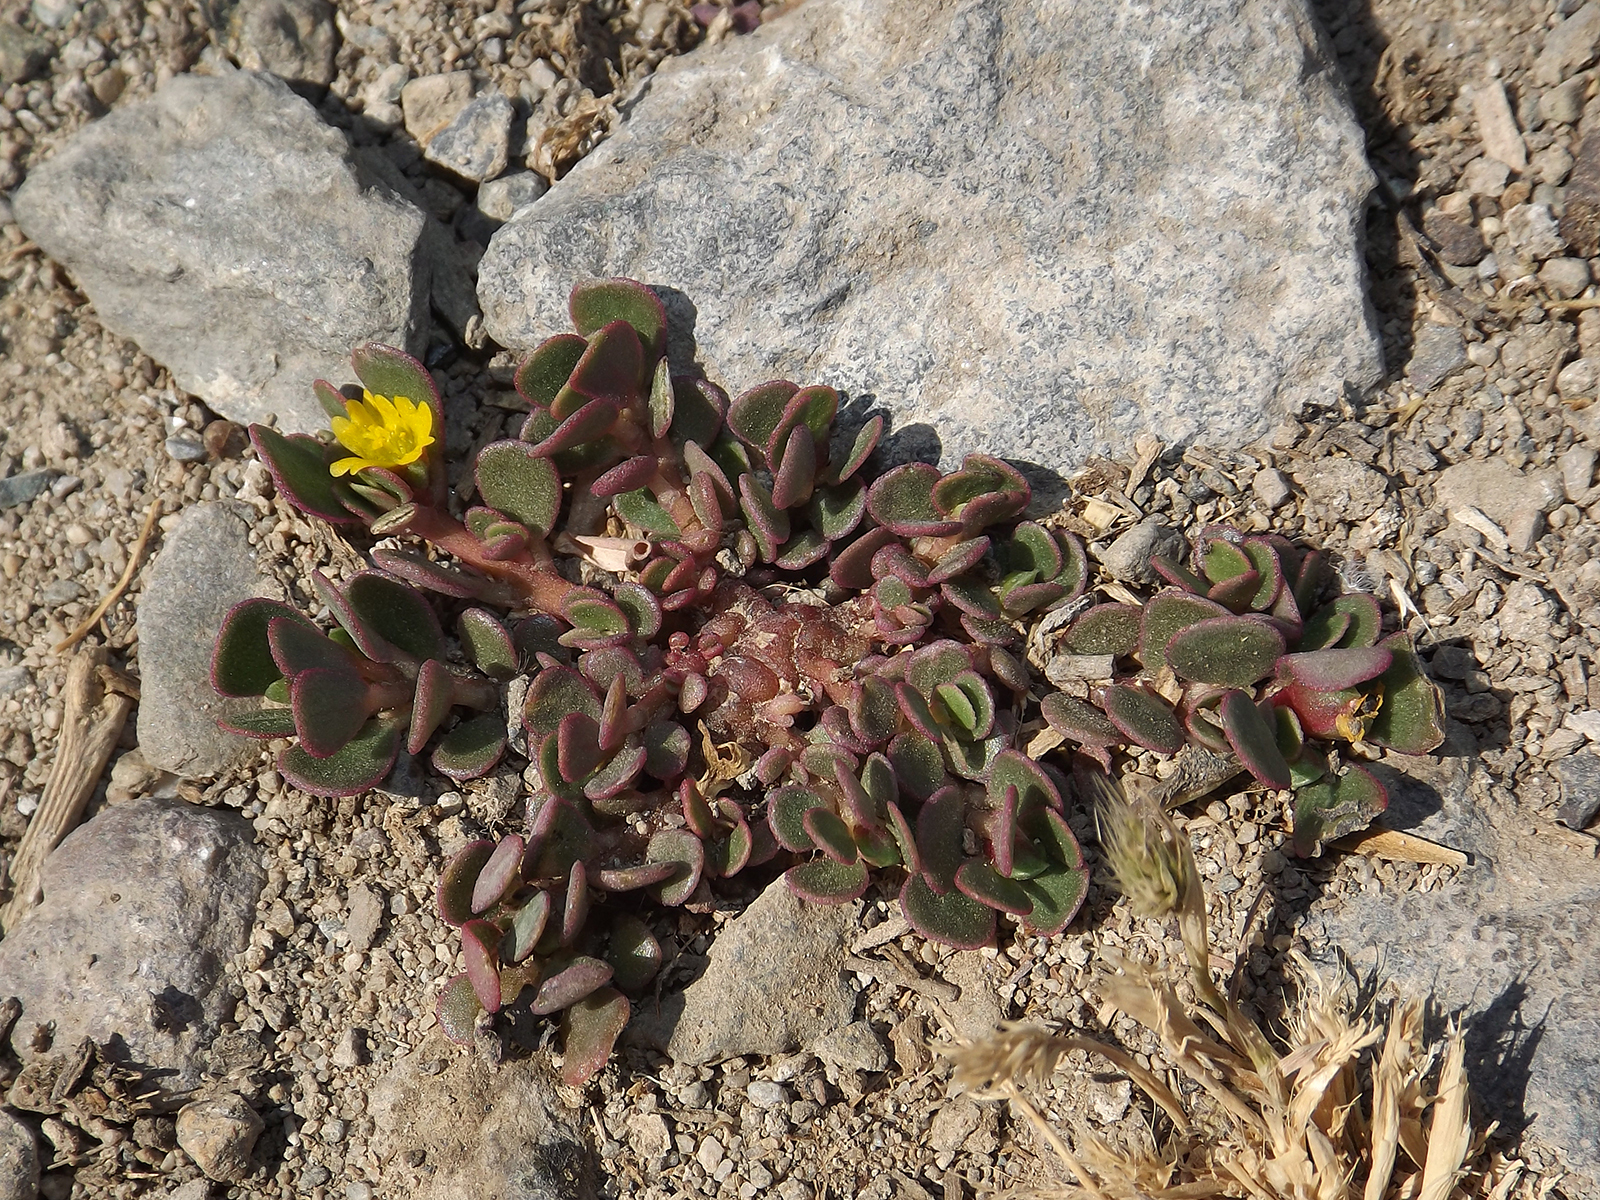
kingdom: Plantae
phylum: Tracheophyta
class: Magnoliopsida
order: Caryophyllales
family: Portulacaceae
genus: Portulaca
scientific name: Portulaca oleracea
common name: Common purslane
